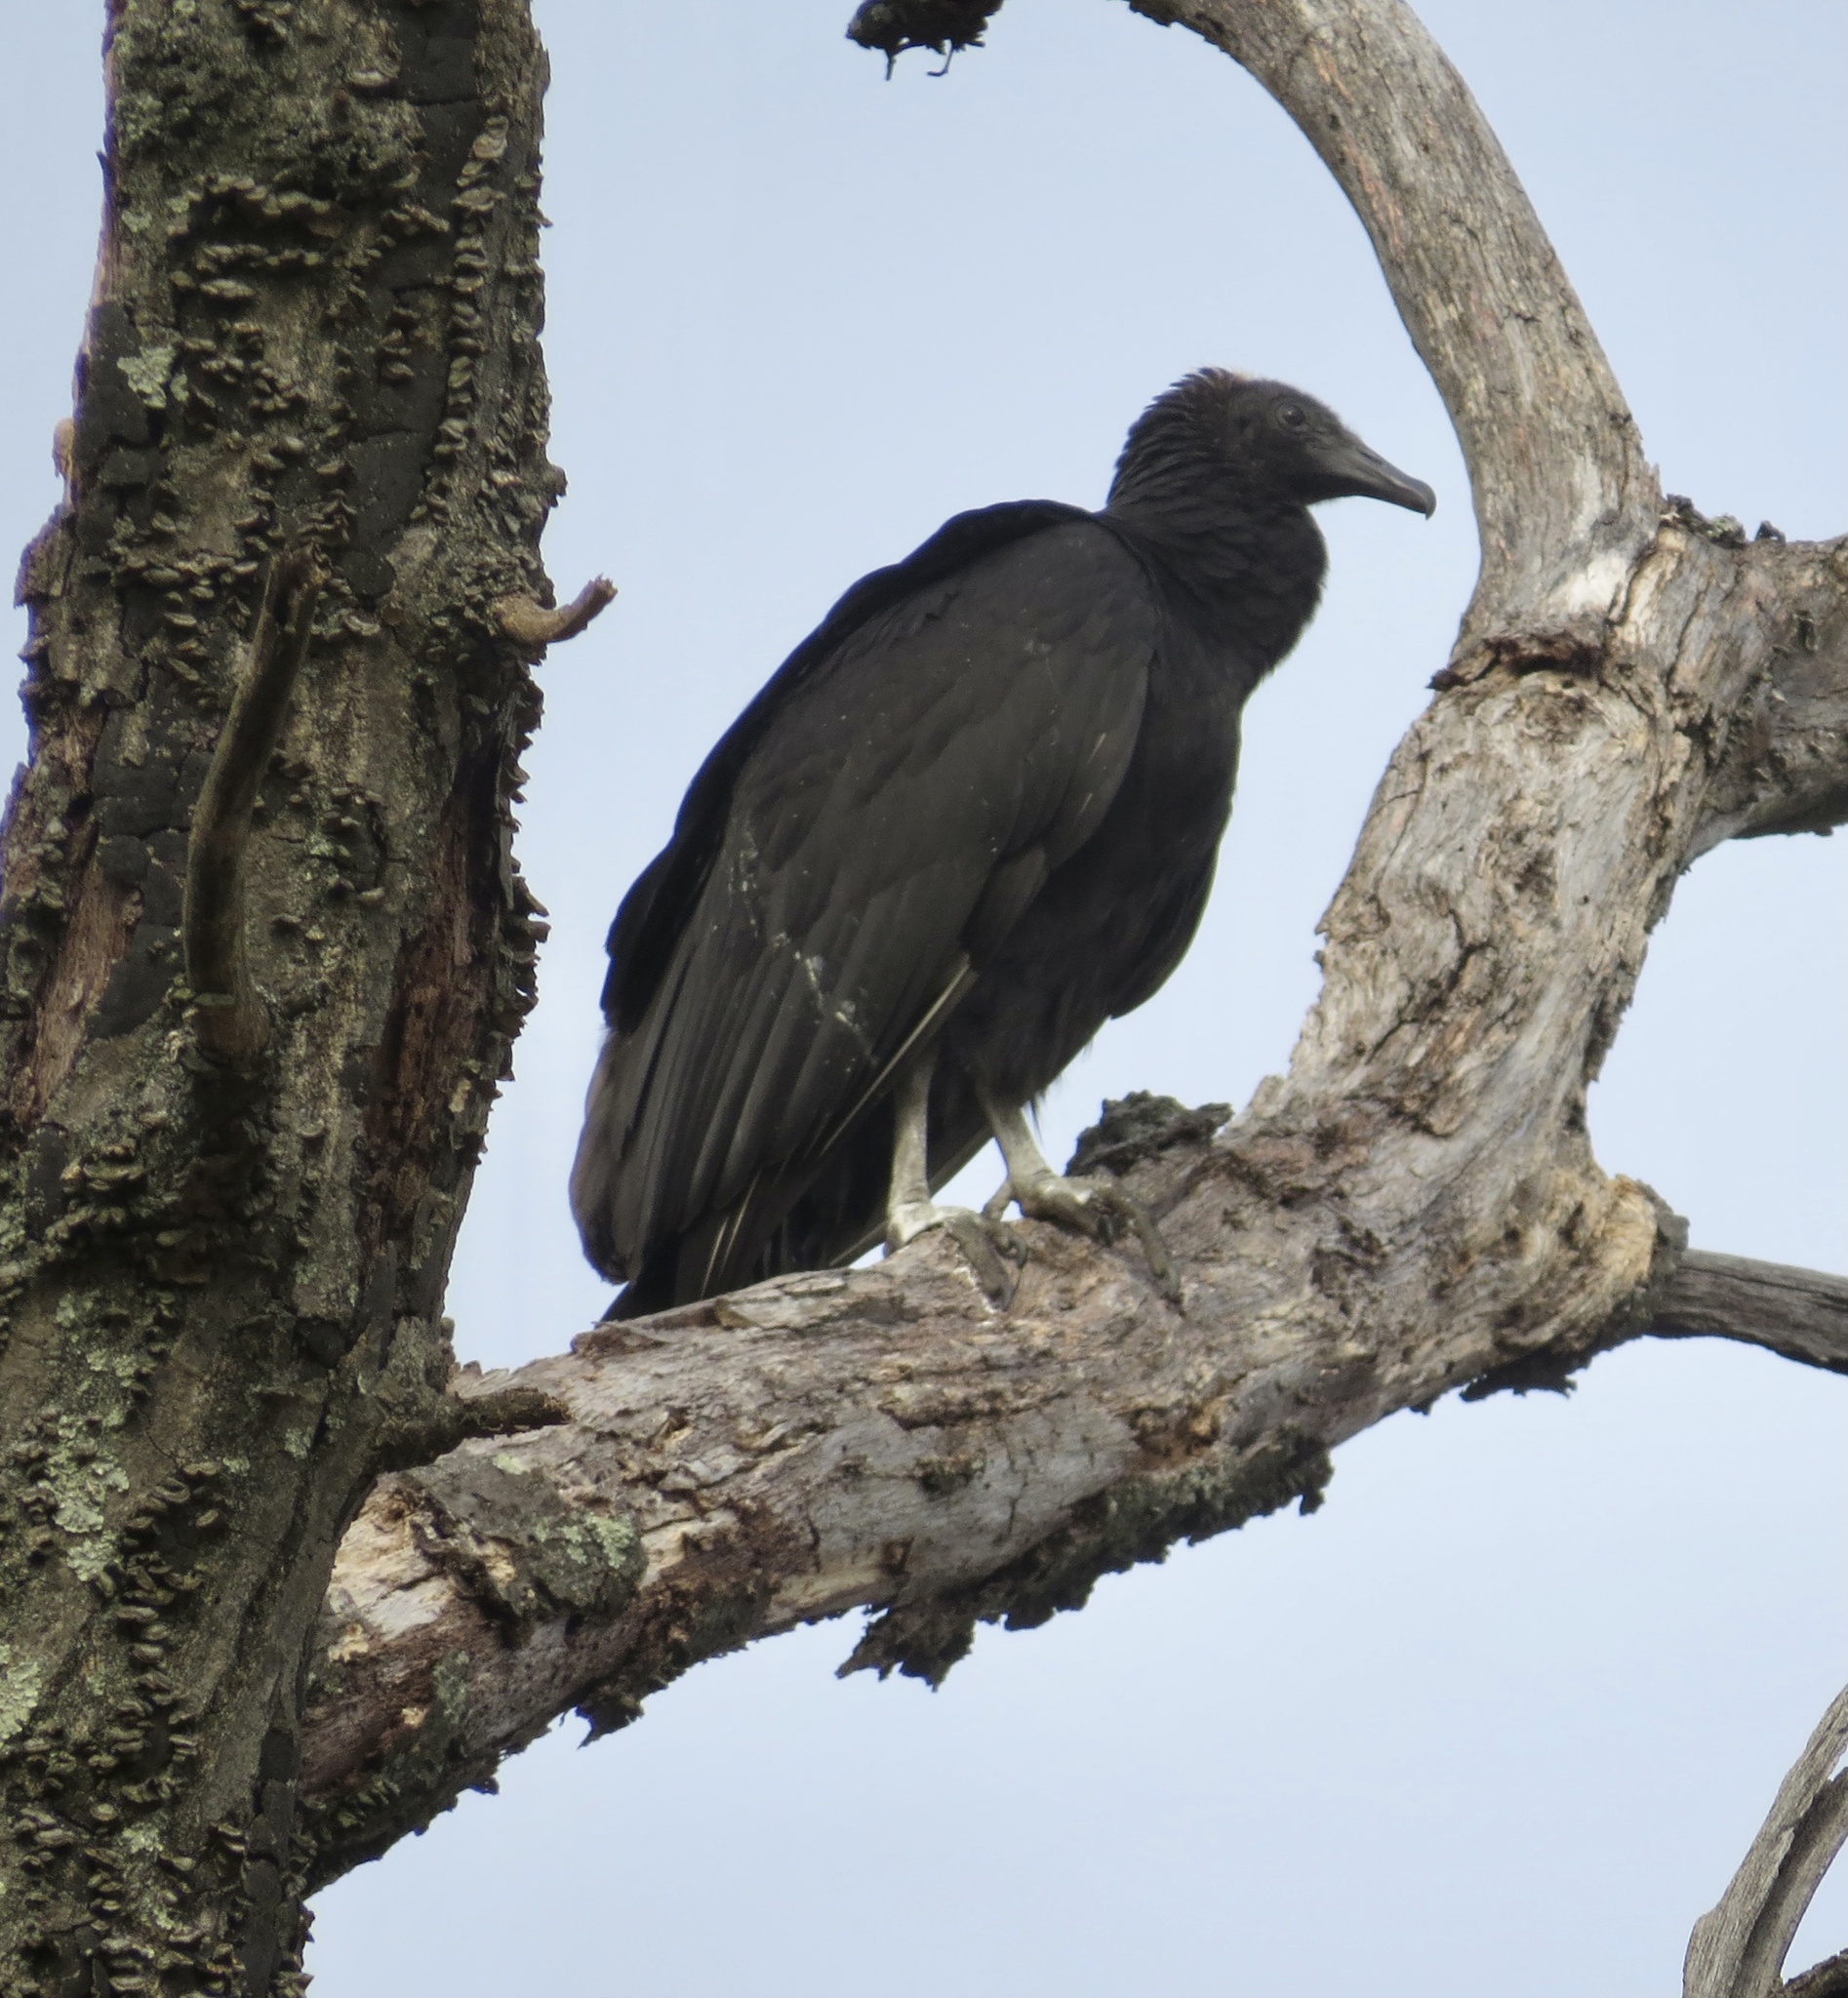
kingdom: Animalia
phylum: Chordata
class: Aves
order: Accipitriformes
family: Cathartidae
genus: Coragyps
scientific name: Coragyps atratus
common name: Black vulture
